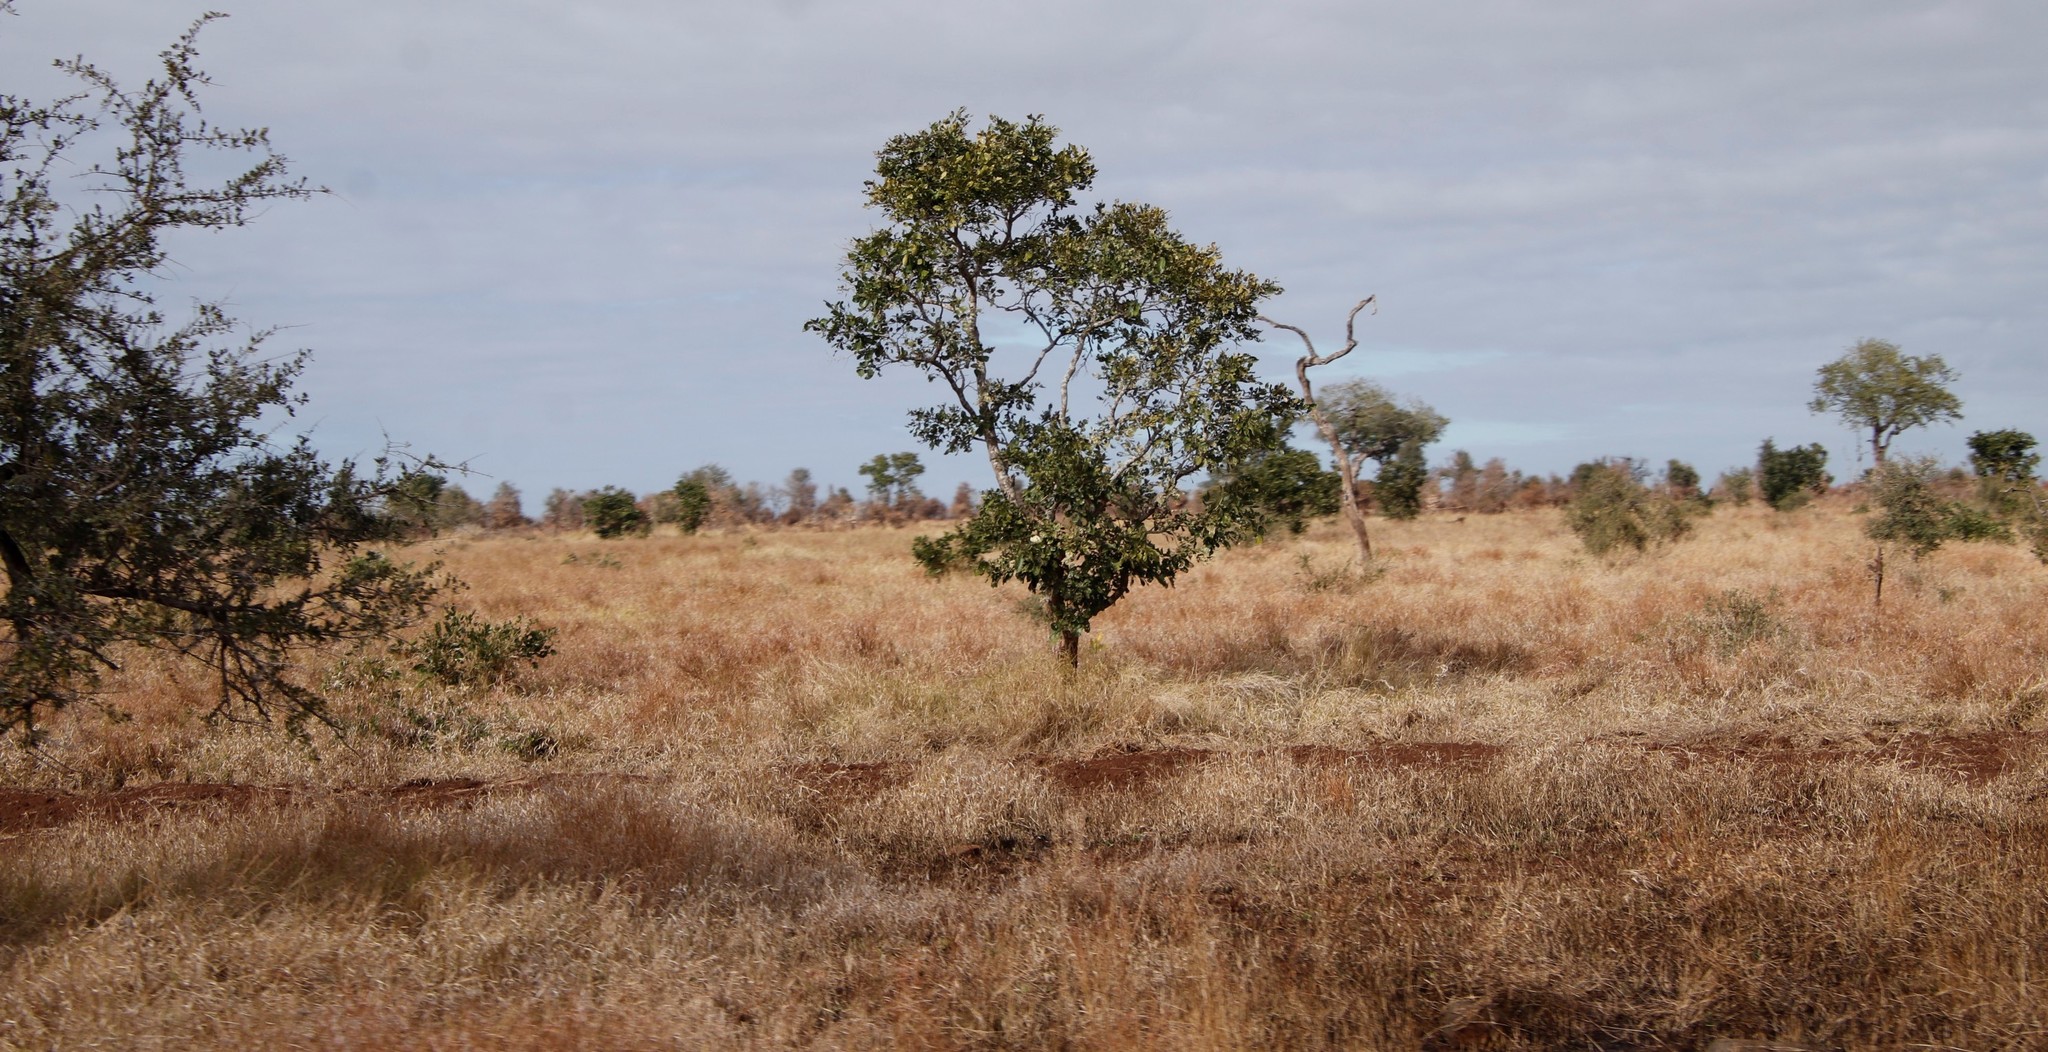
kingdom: Plantae
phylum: Tracheophyta
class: Magnoliopsida
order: Fabales
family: Fabaceae
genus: Philenoptera
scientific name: Philenoptera violacea
